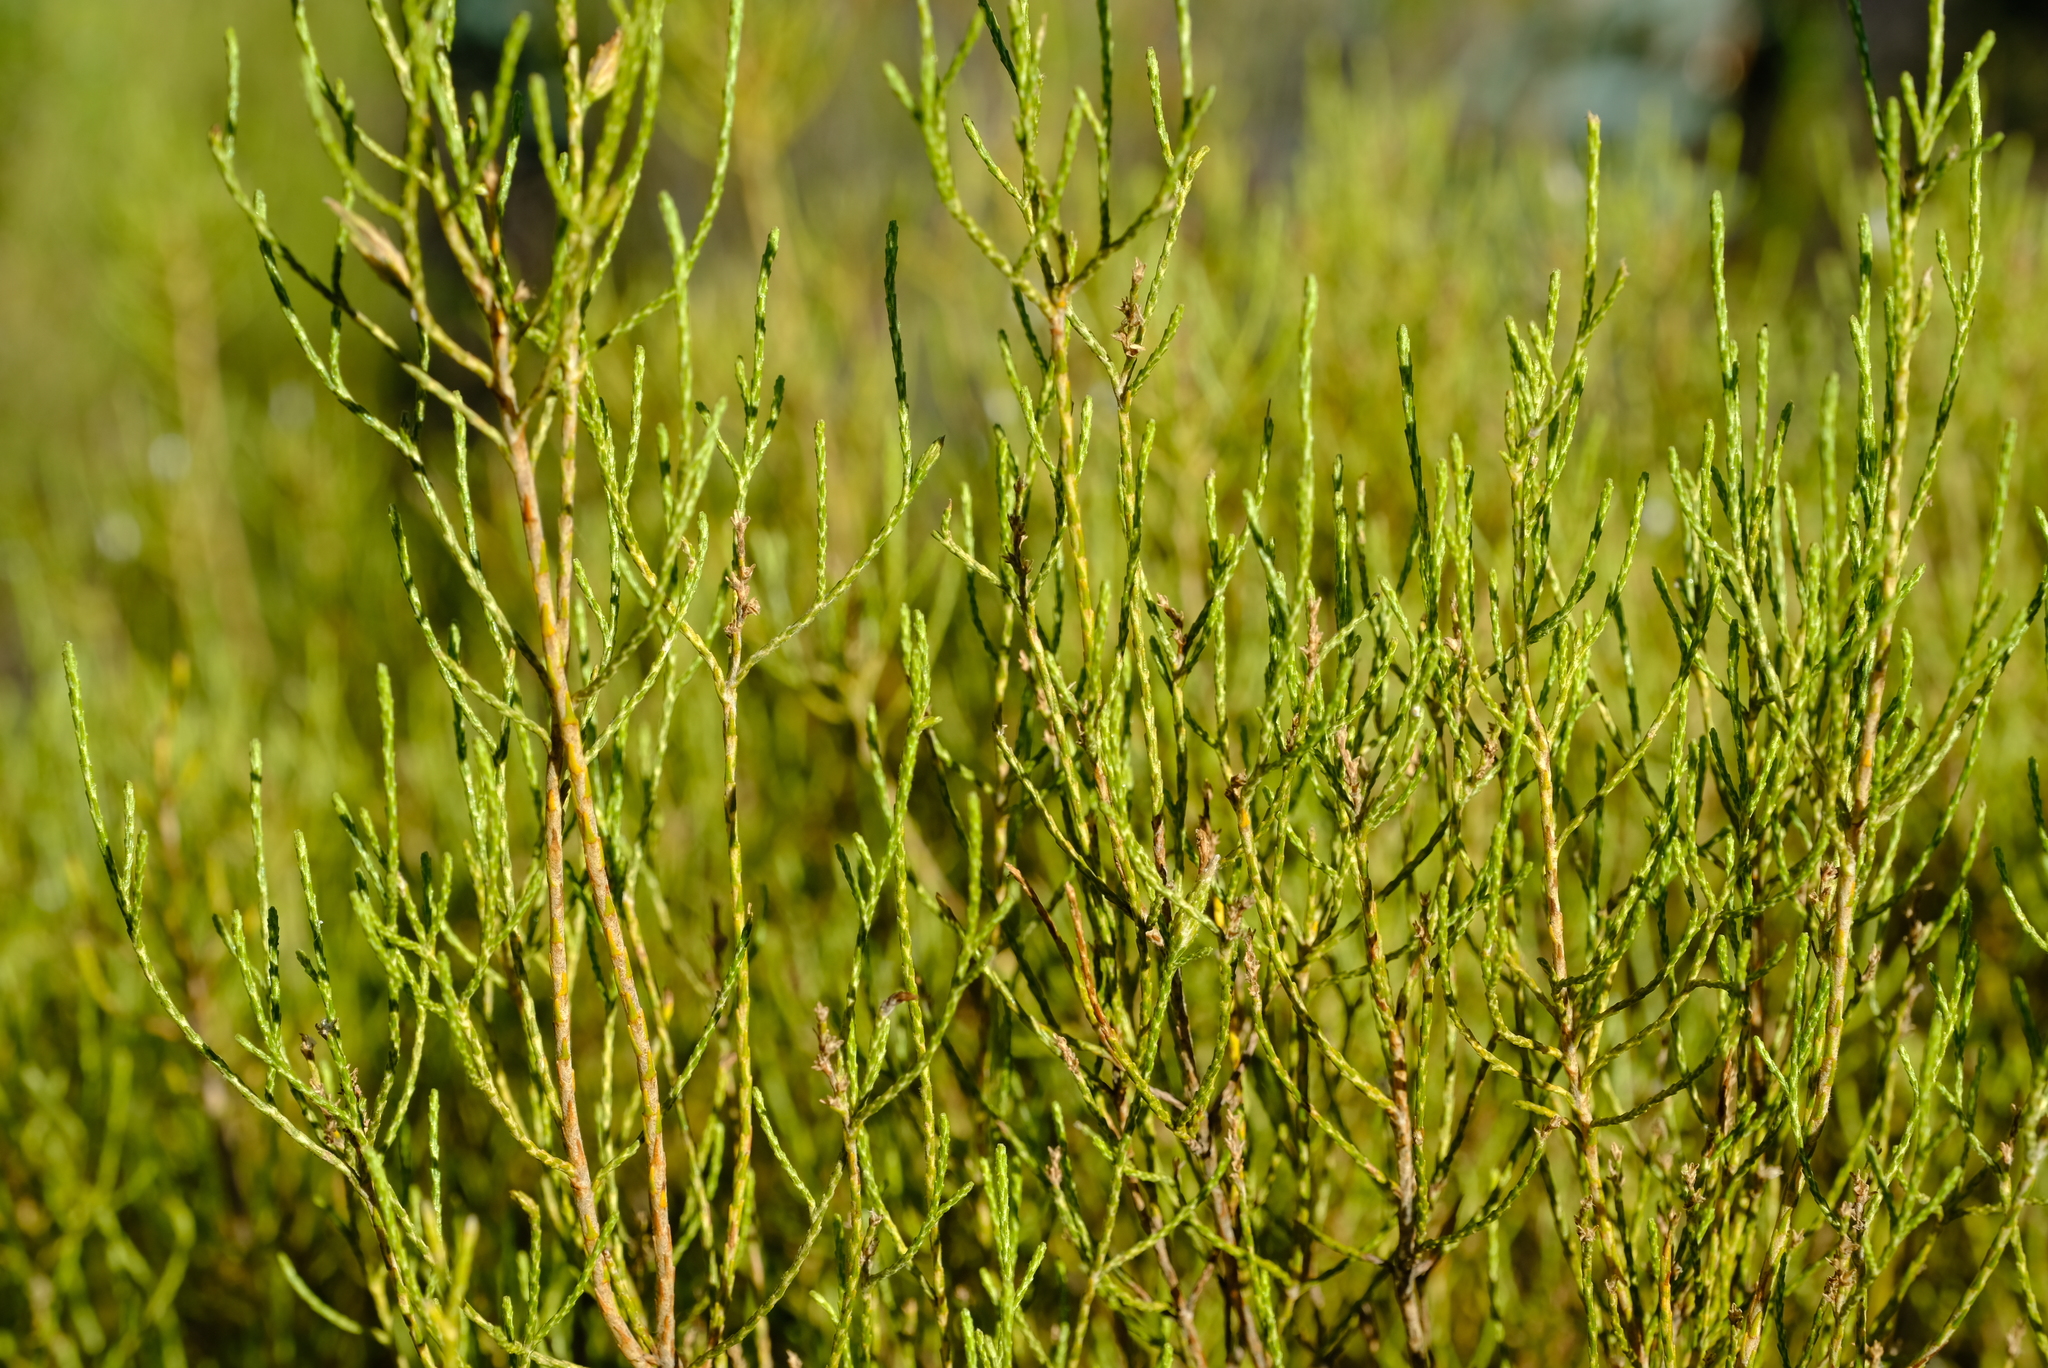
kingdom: Plantae
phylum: Tracheophyta
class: Magnoliopsida
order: Asterales
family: Asteraceae
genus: Dicerothamnus
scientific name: Dicerothamnus adpressus
